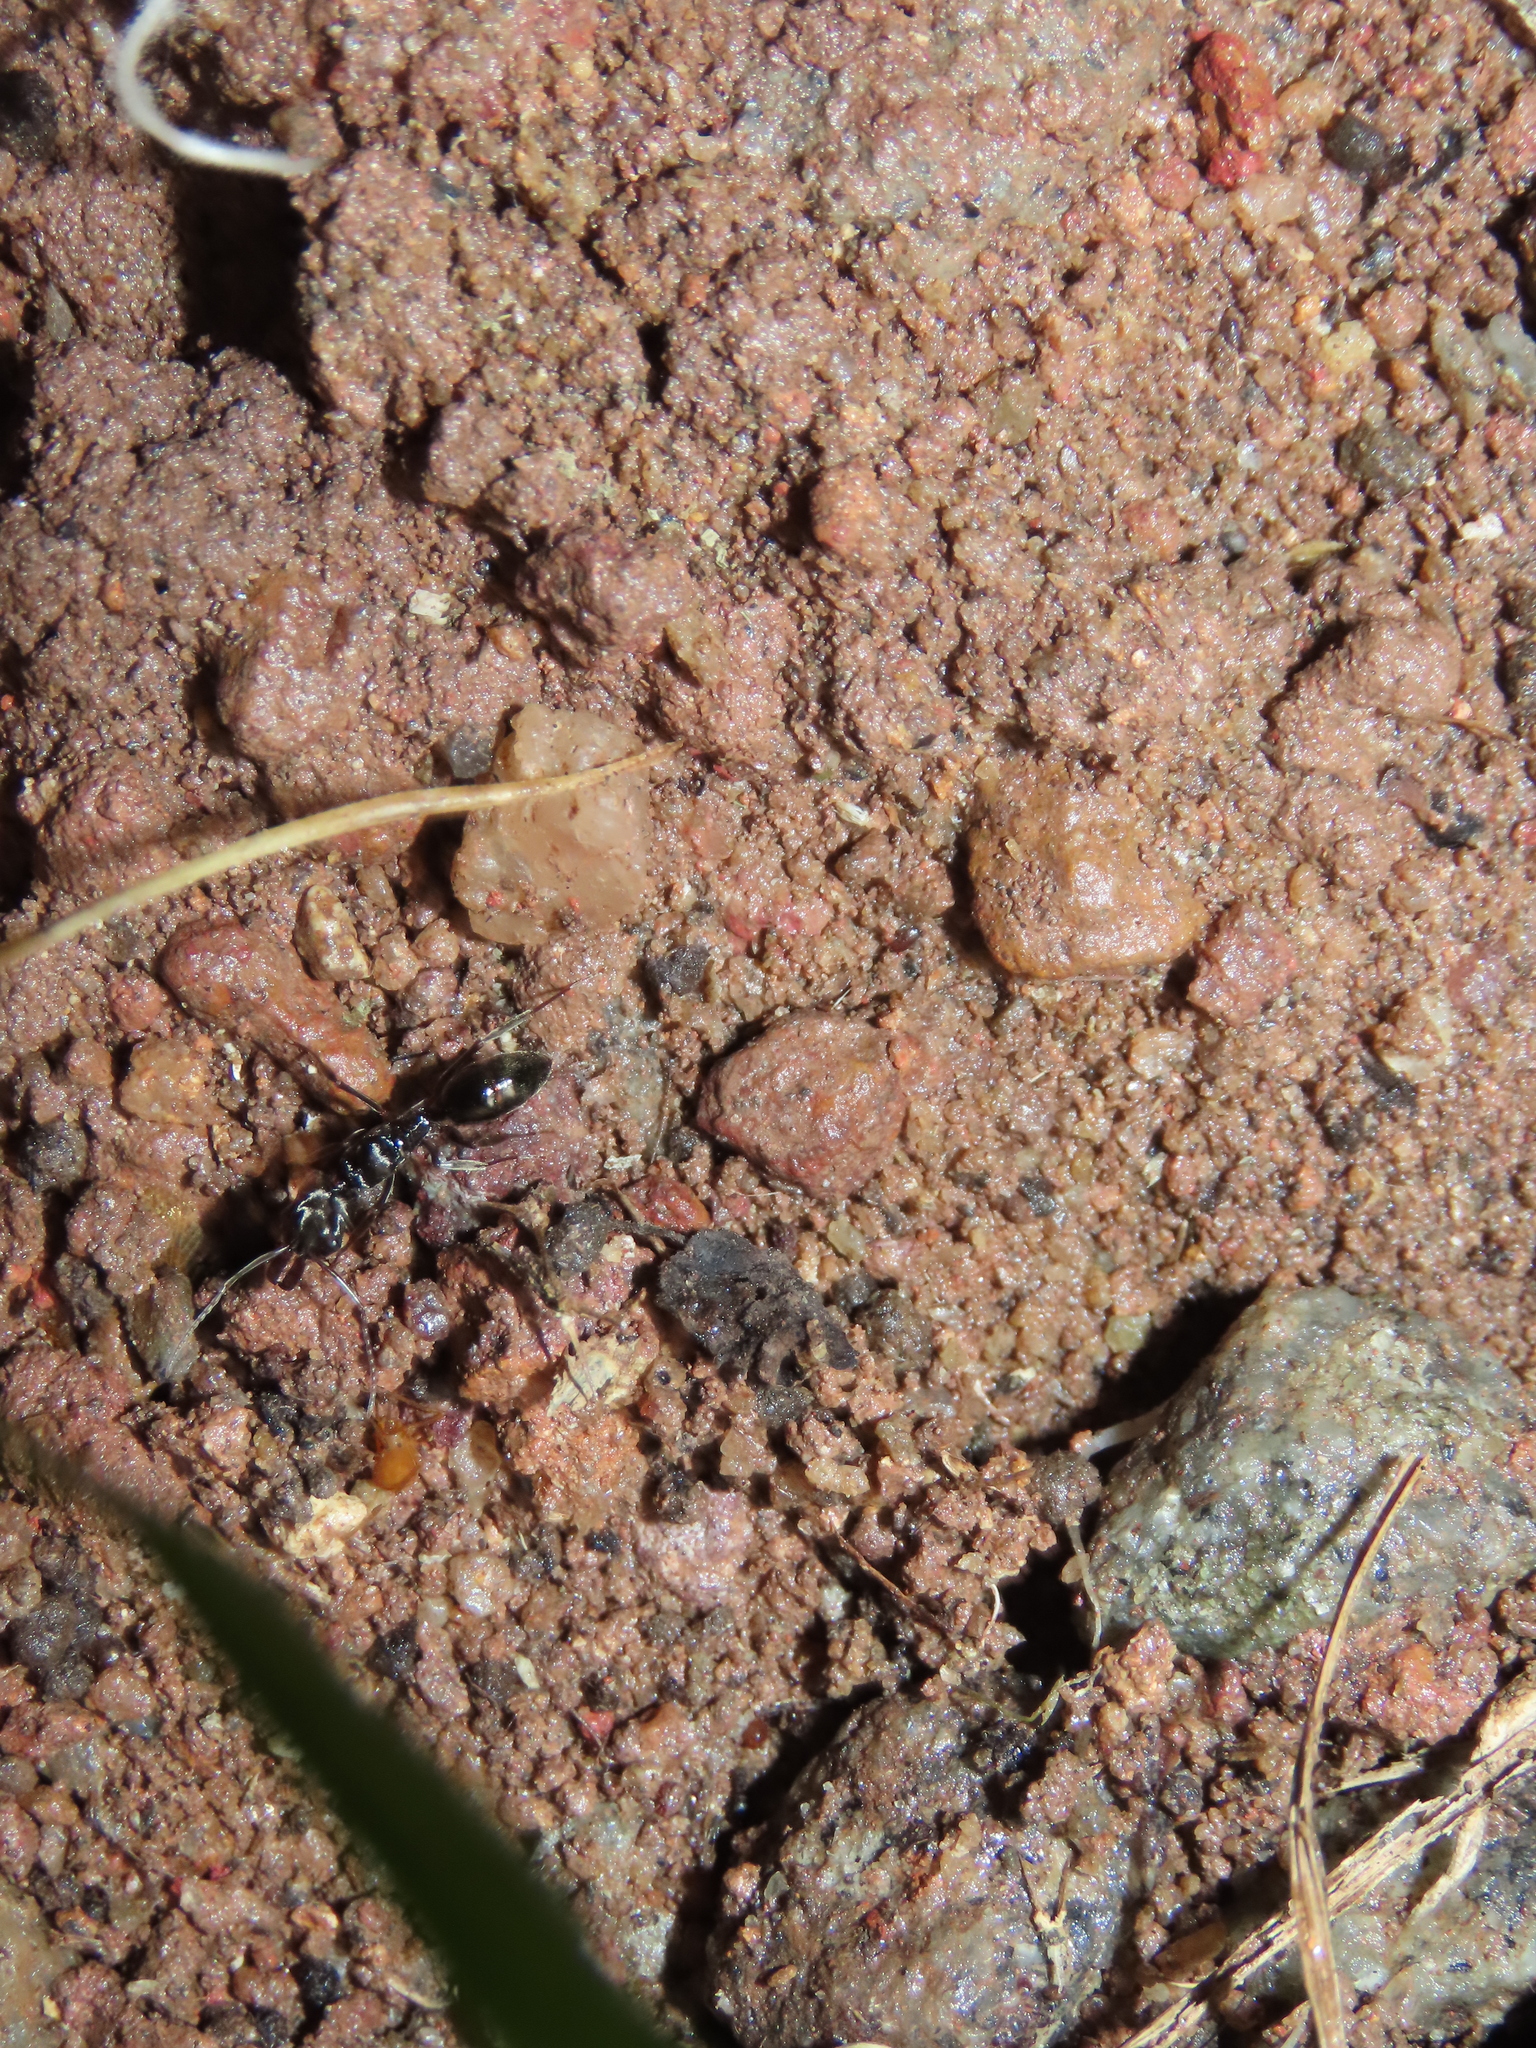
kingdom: Animalia
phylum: Arthropoda
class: Insecta
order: Hymenoptera
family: Formicidae
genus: Odontomachus
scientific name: Odontomachus simillimus
